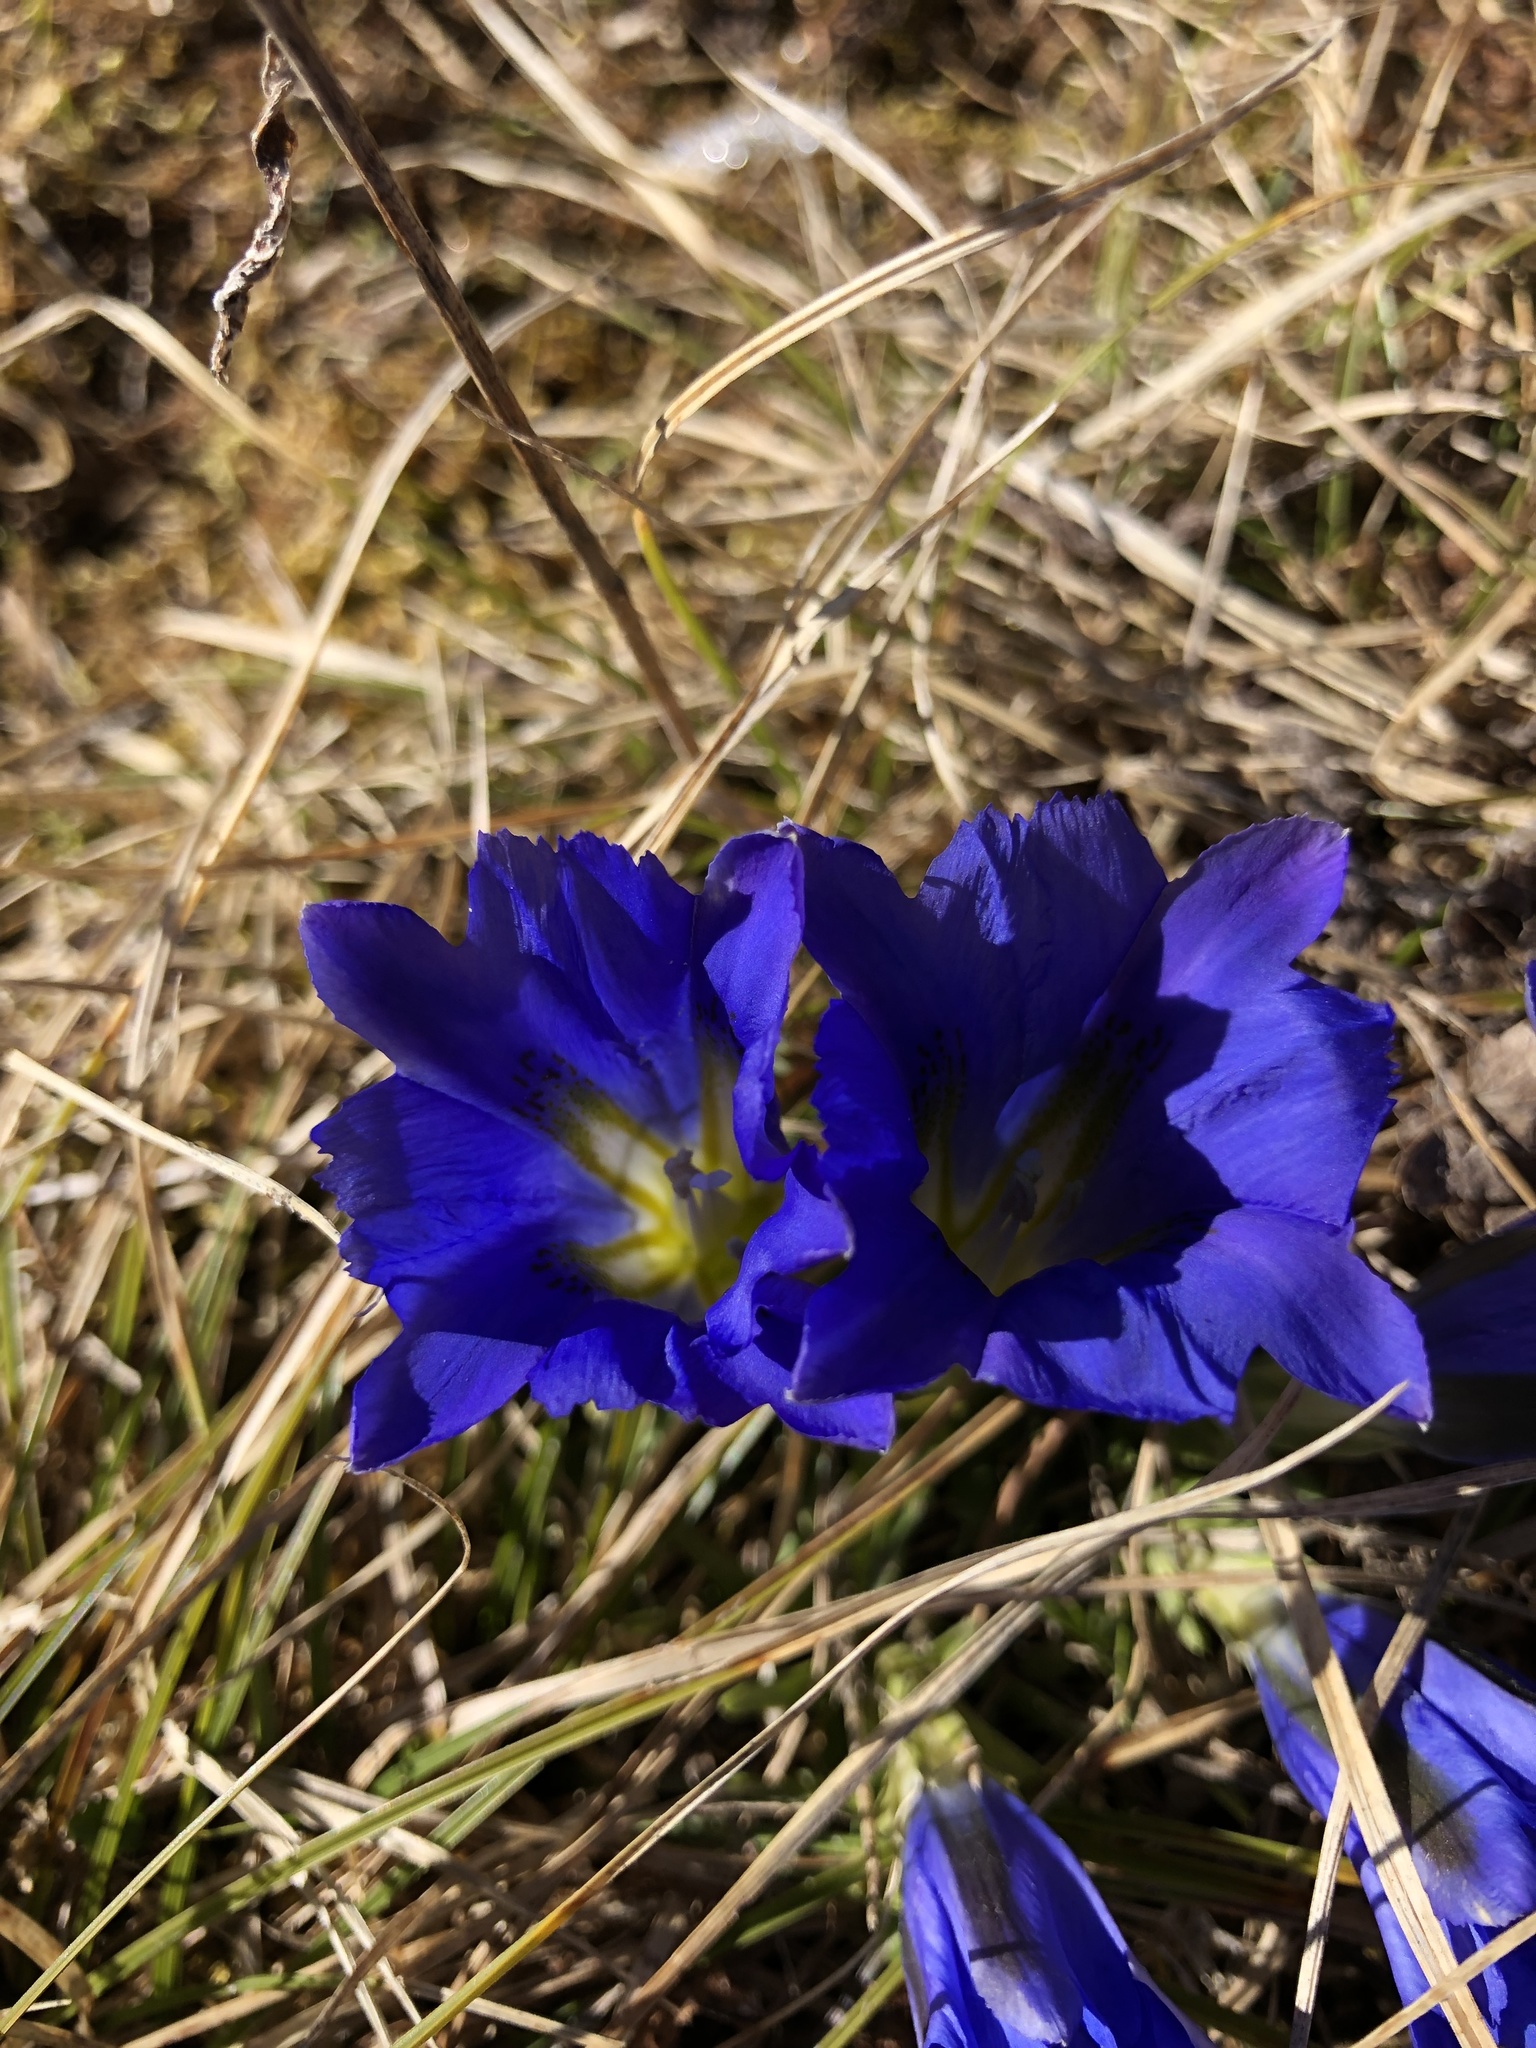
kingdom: Plantae
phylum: Tracheophyta
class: Magnoliopsida
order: Gentianales
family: Gentianaceae
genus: Gentiana
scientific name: Gentiana grandiflora
